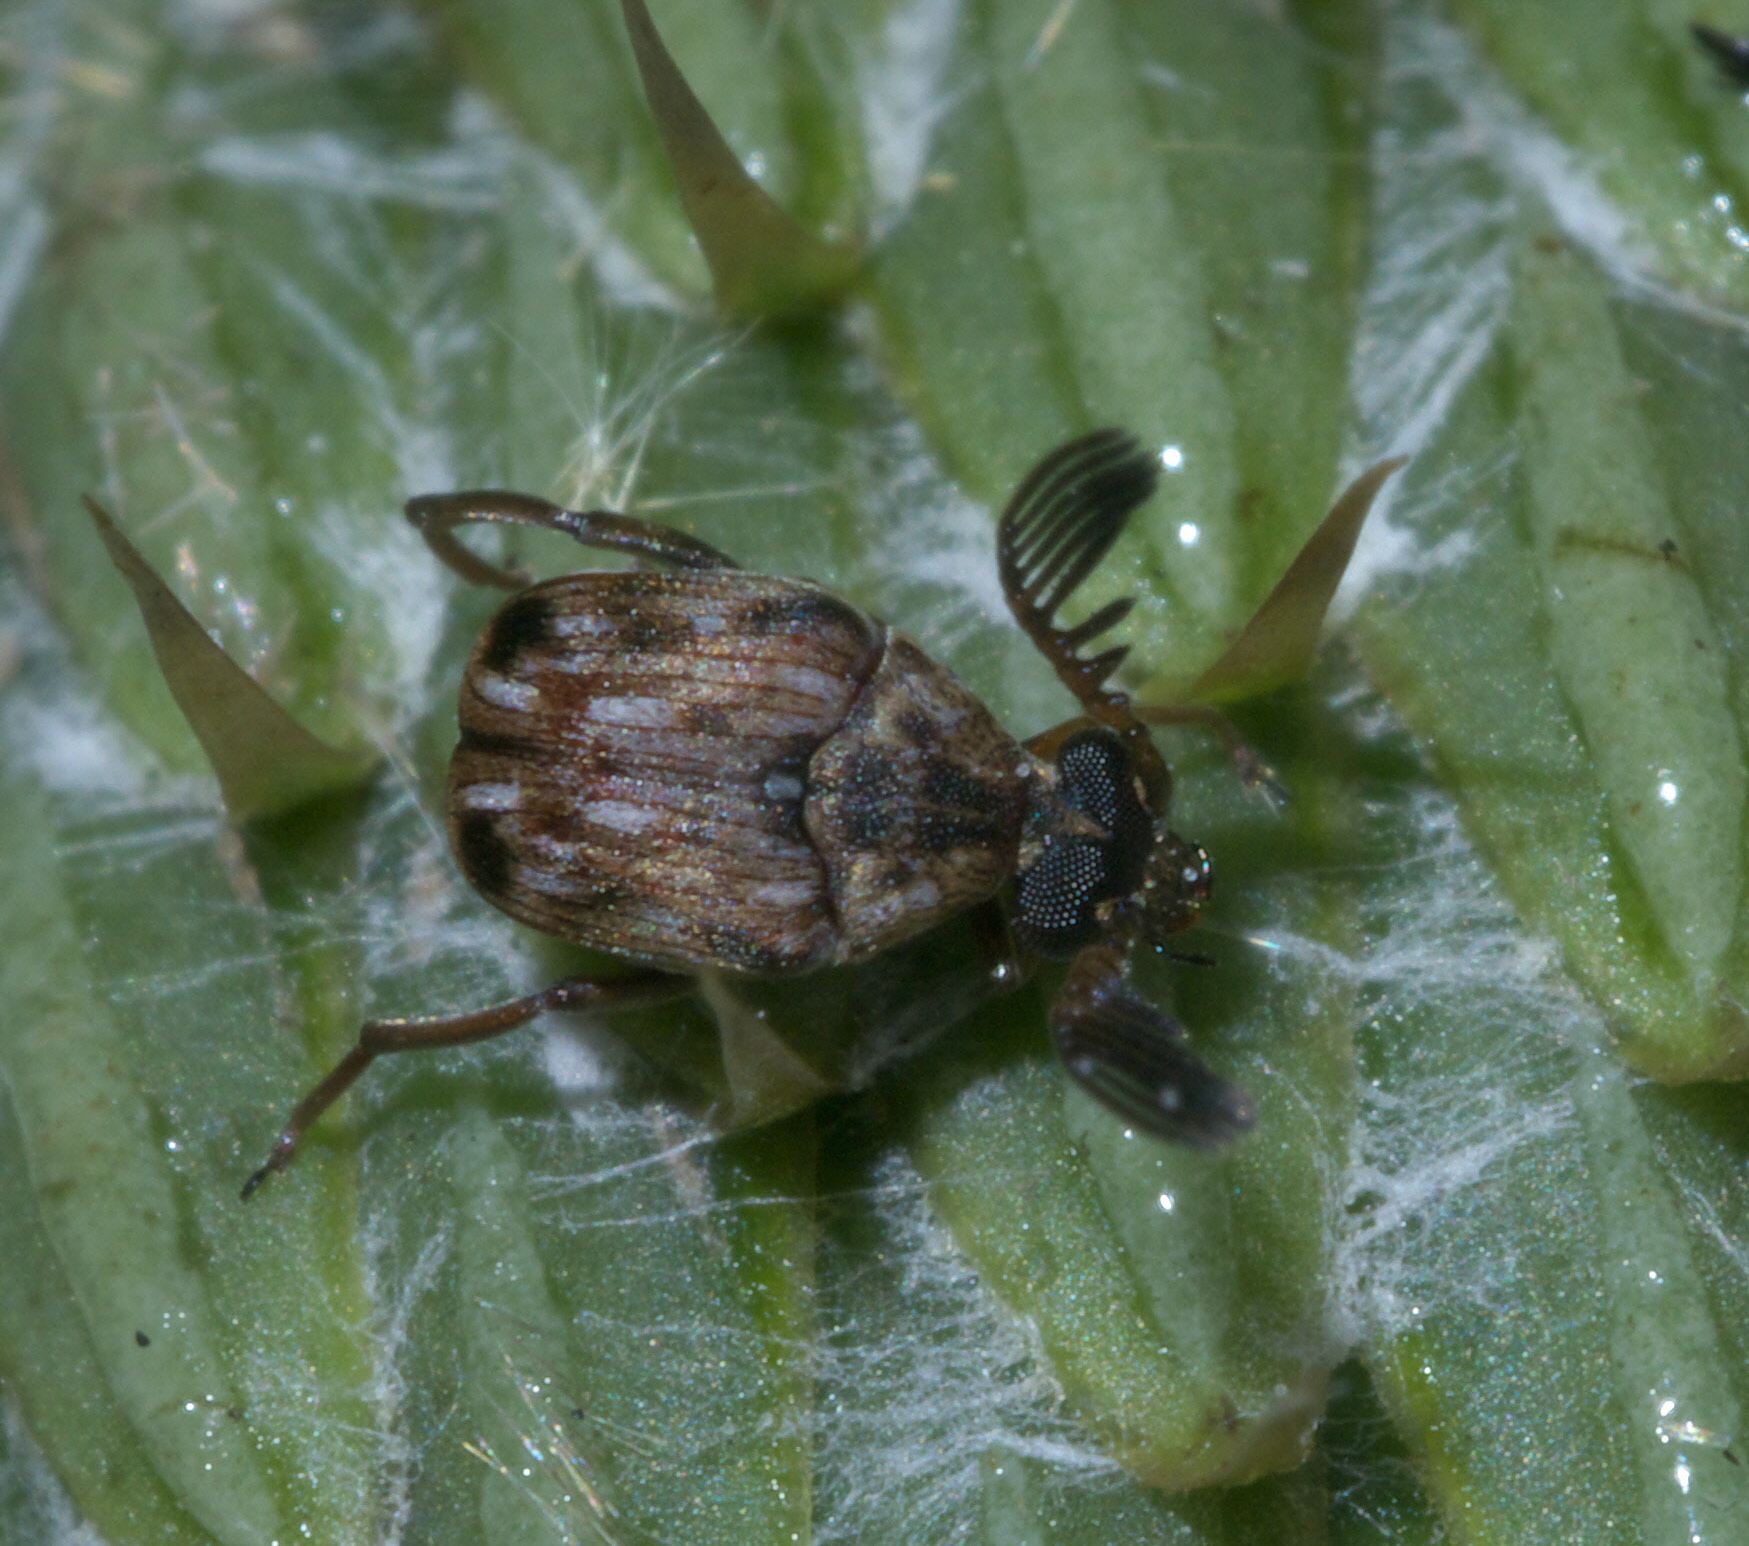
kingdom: Animalia
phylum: Arthropoda
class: Insecta
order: Coleoptera
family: Chrysomelidae
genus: Megacerus
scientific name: Megacerus cubiculus
